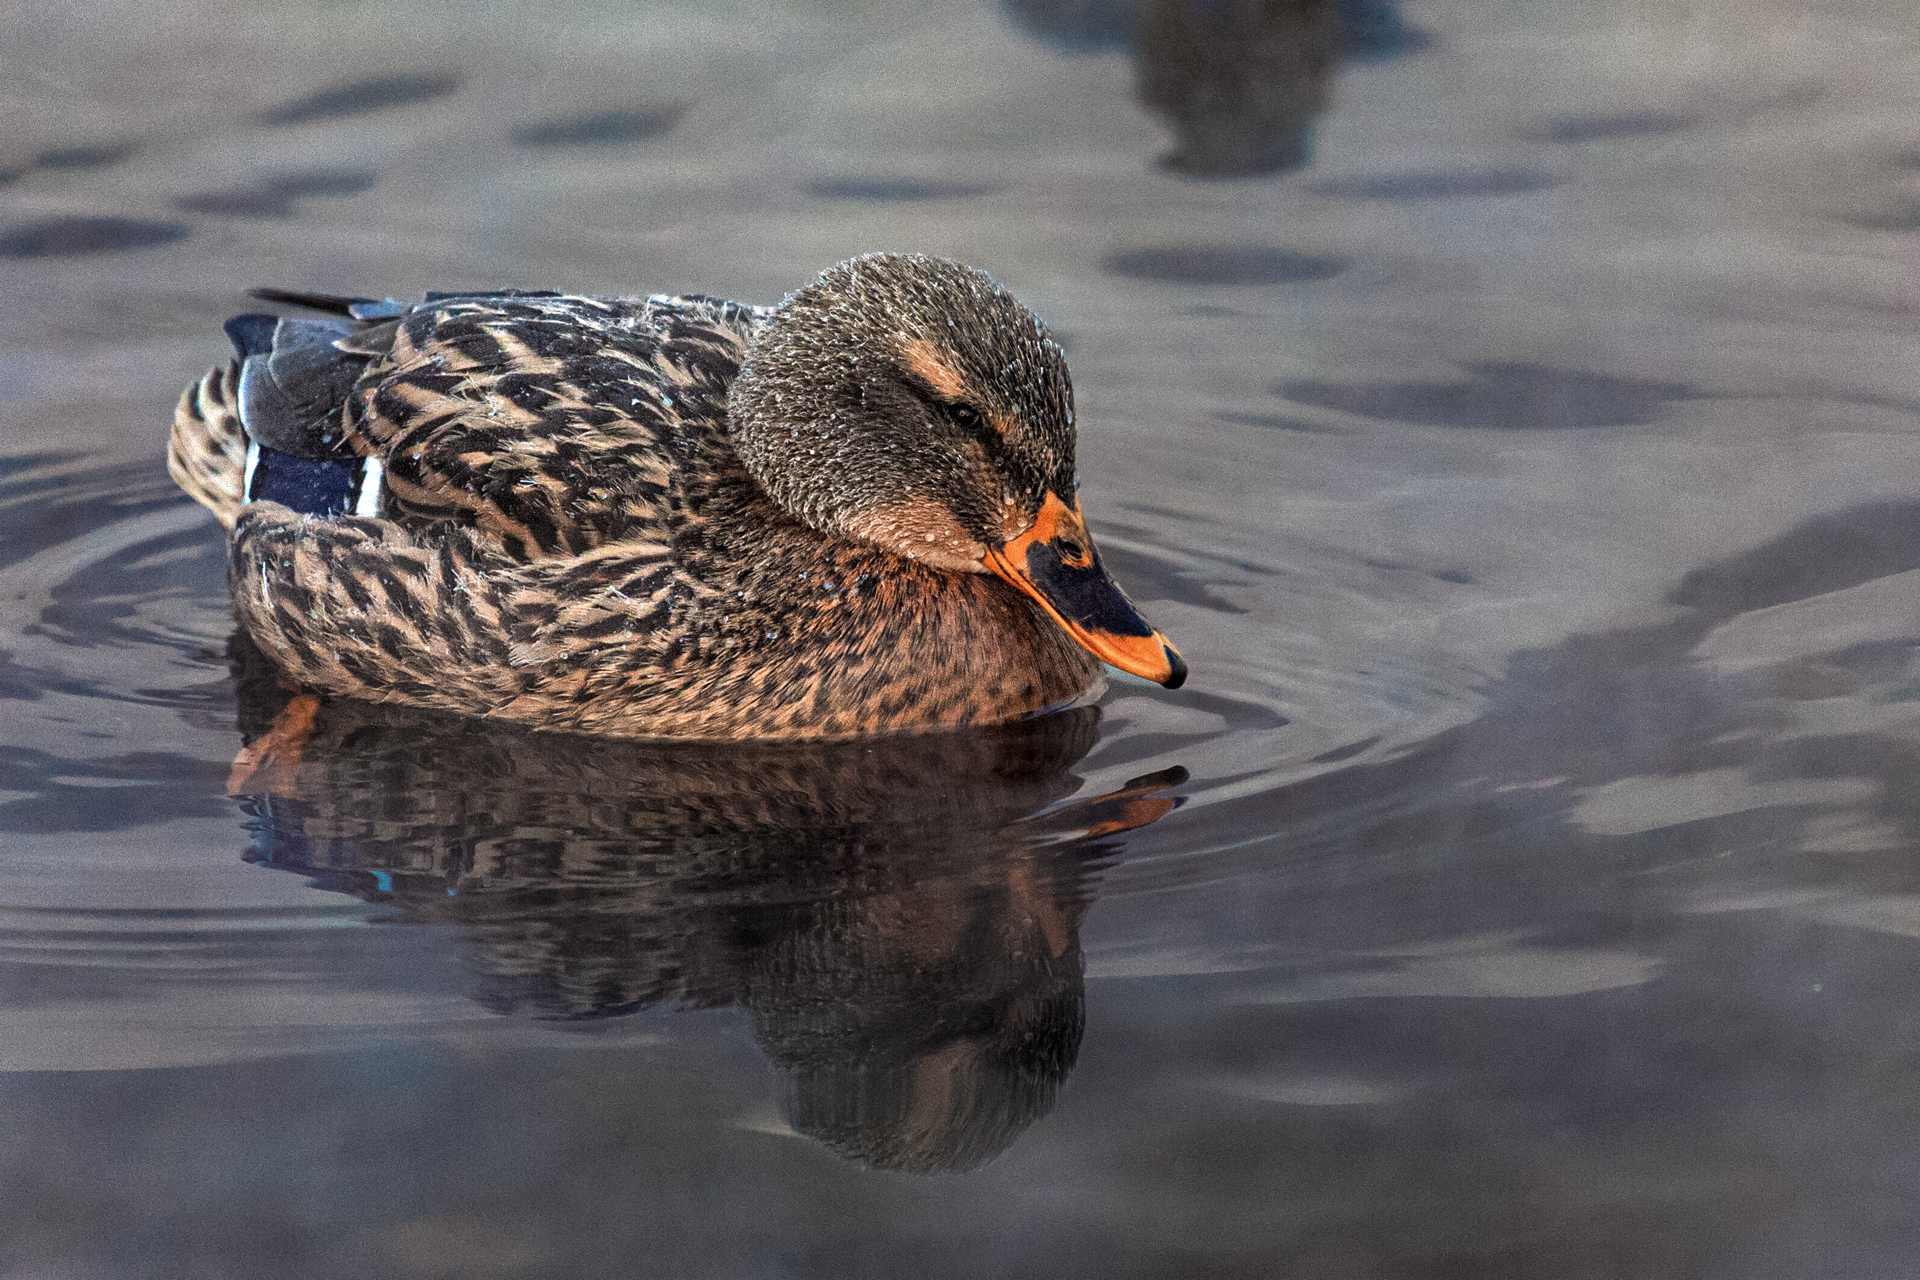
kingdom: Animalia
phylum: Chordata
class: Aves
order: Anseriformes
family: Anatidae
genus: Anas
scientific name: Anas platyrhynchos
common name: Mallard
